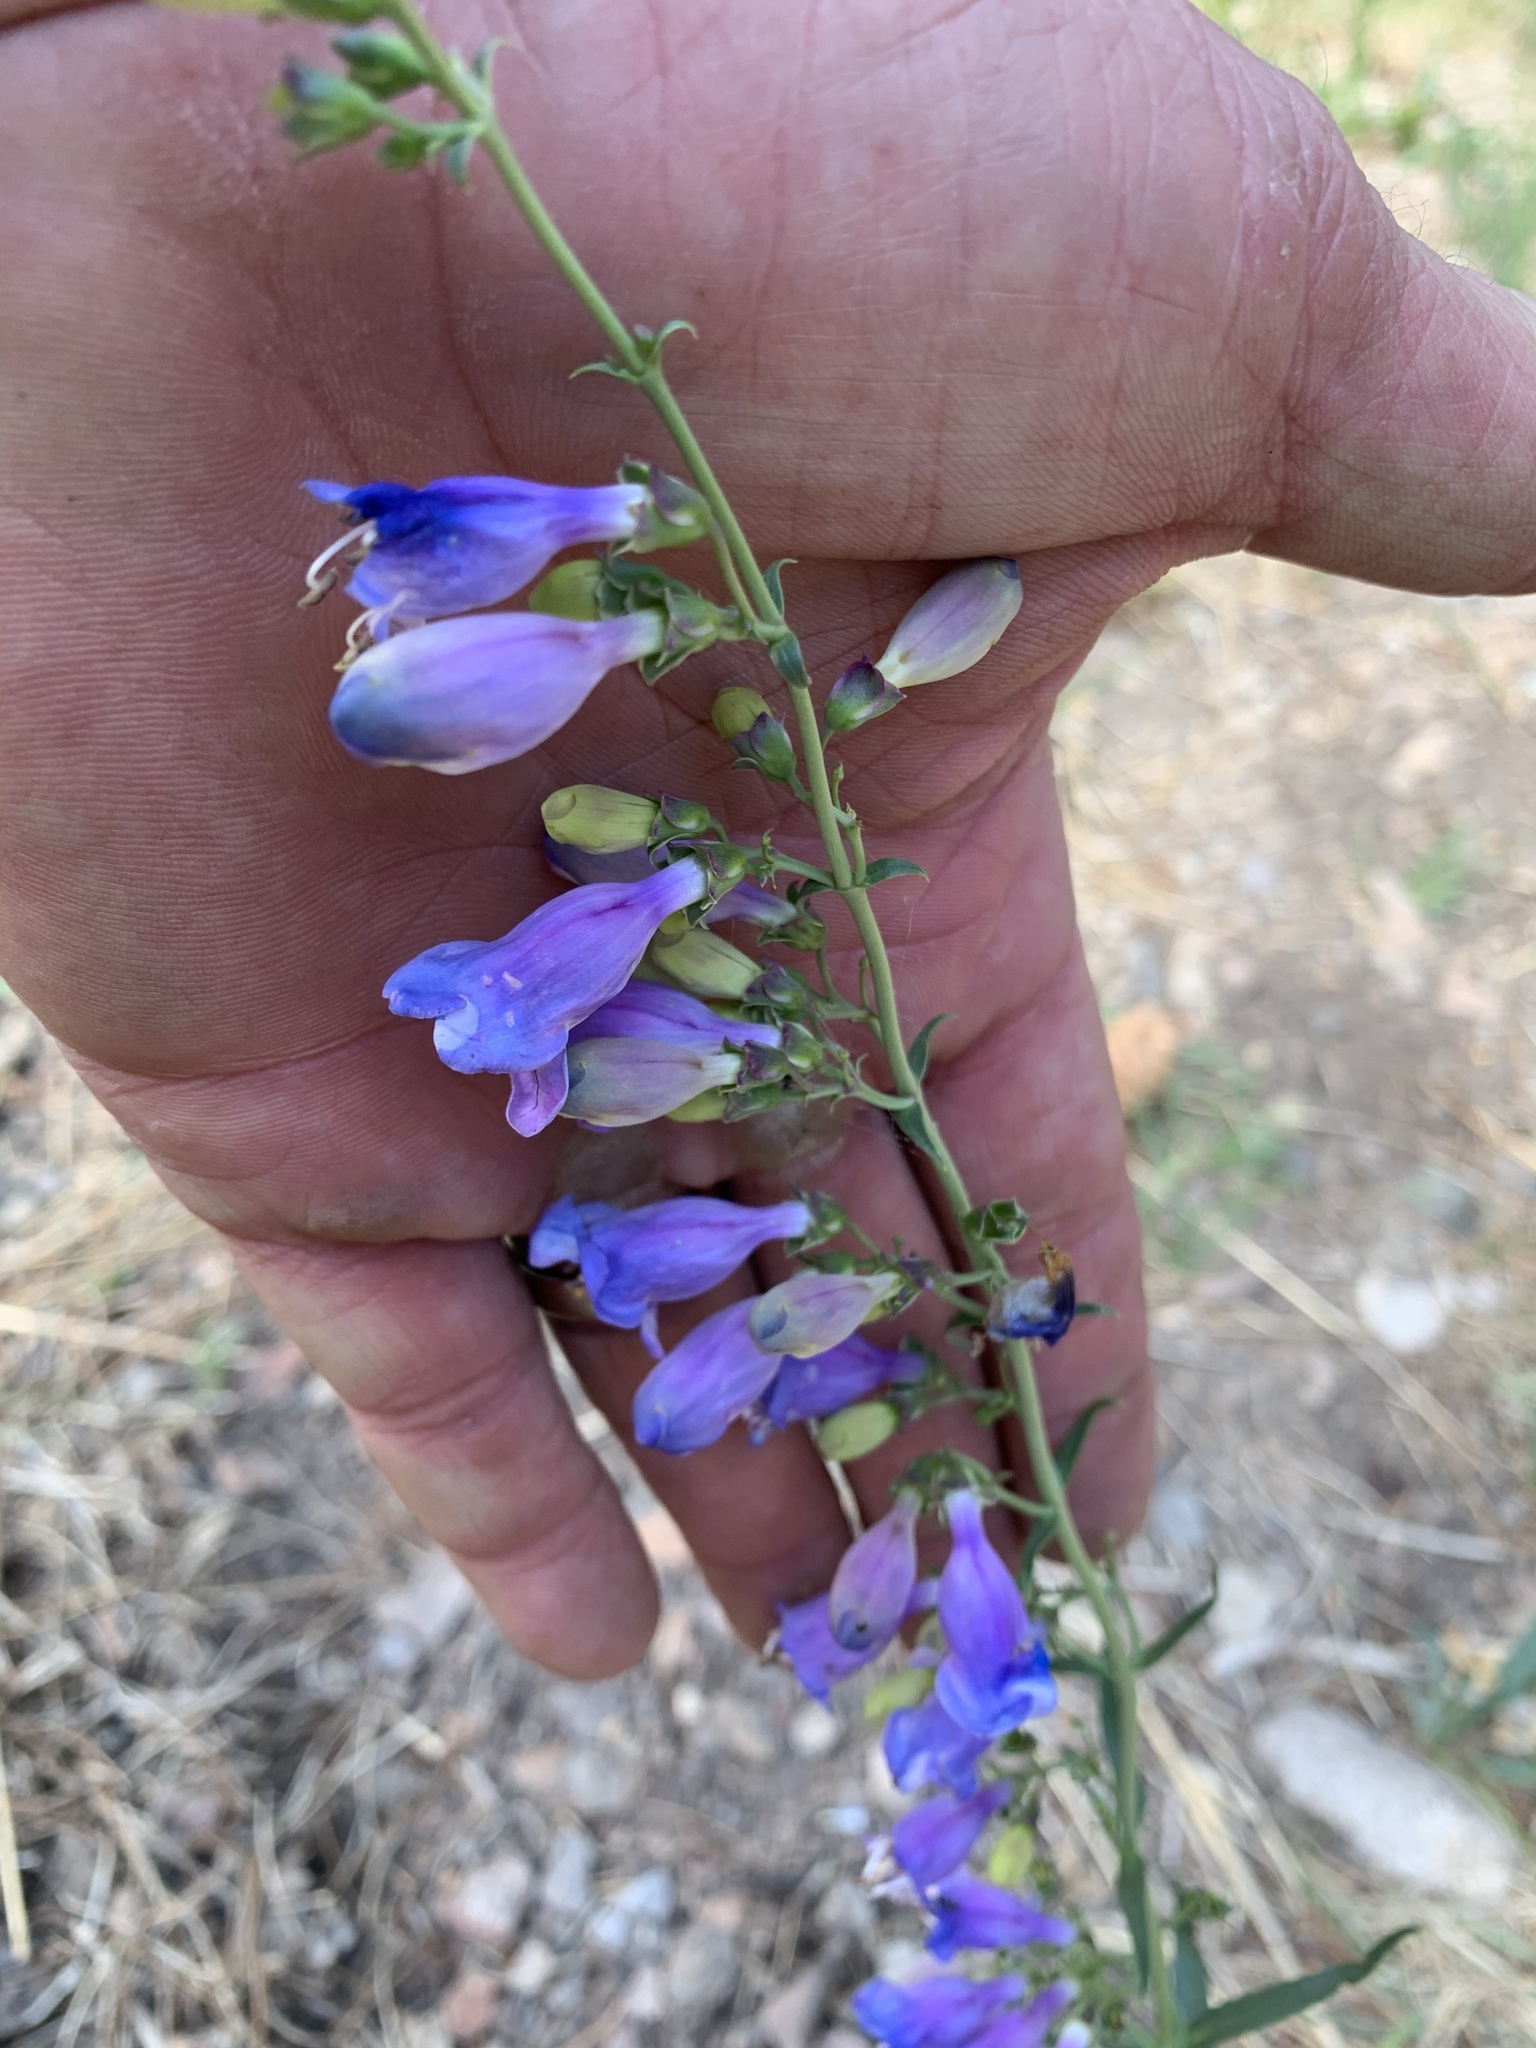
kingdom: Plantae
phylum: Tracheophyta
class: Magnoliopsida
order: Lamiales
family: Plantaginaceae
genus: Penstemon
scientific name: Penstemon neomexicanus
